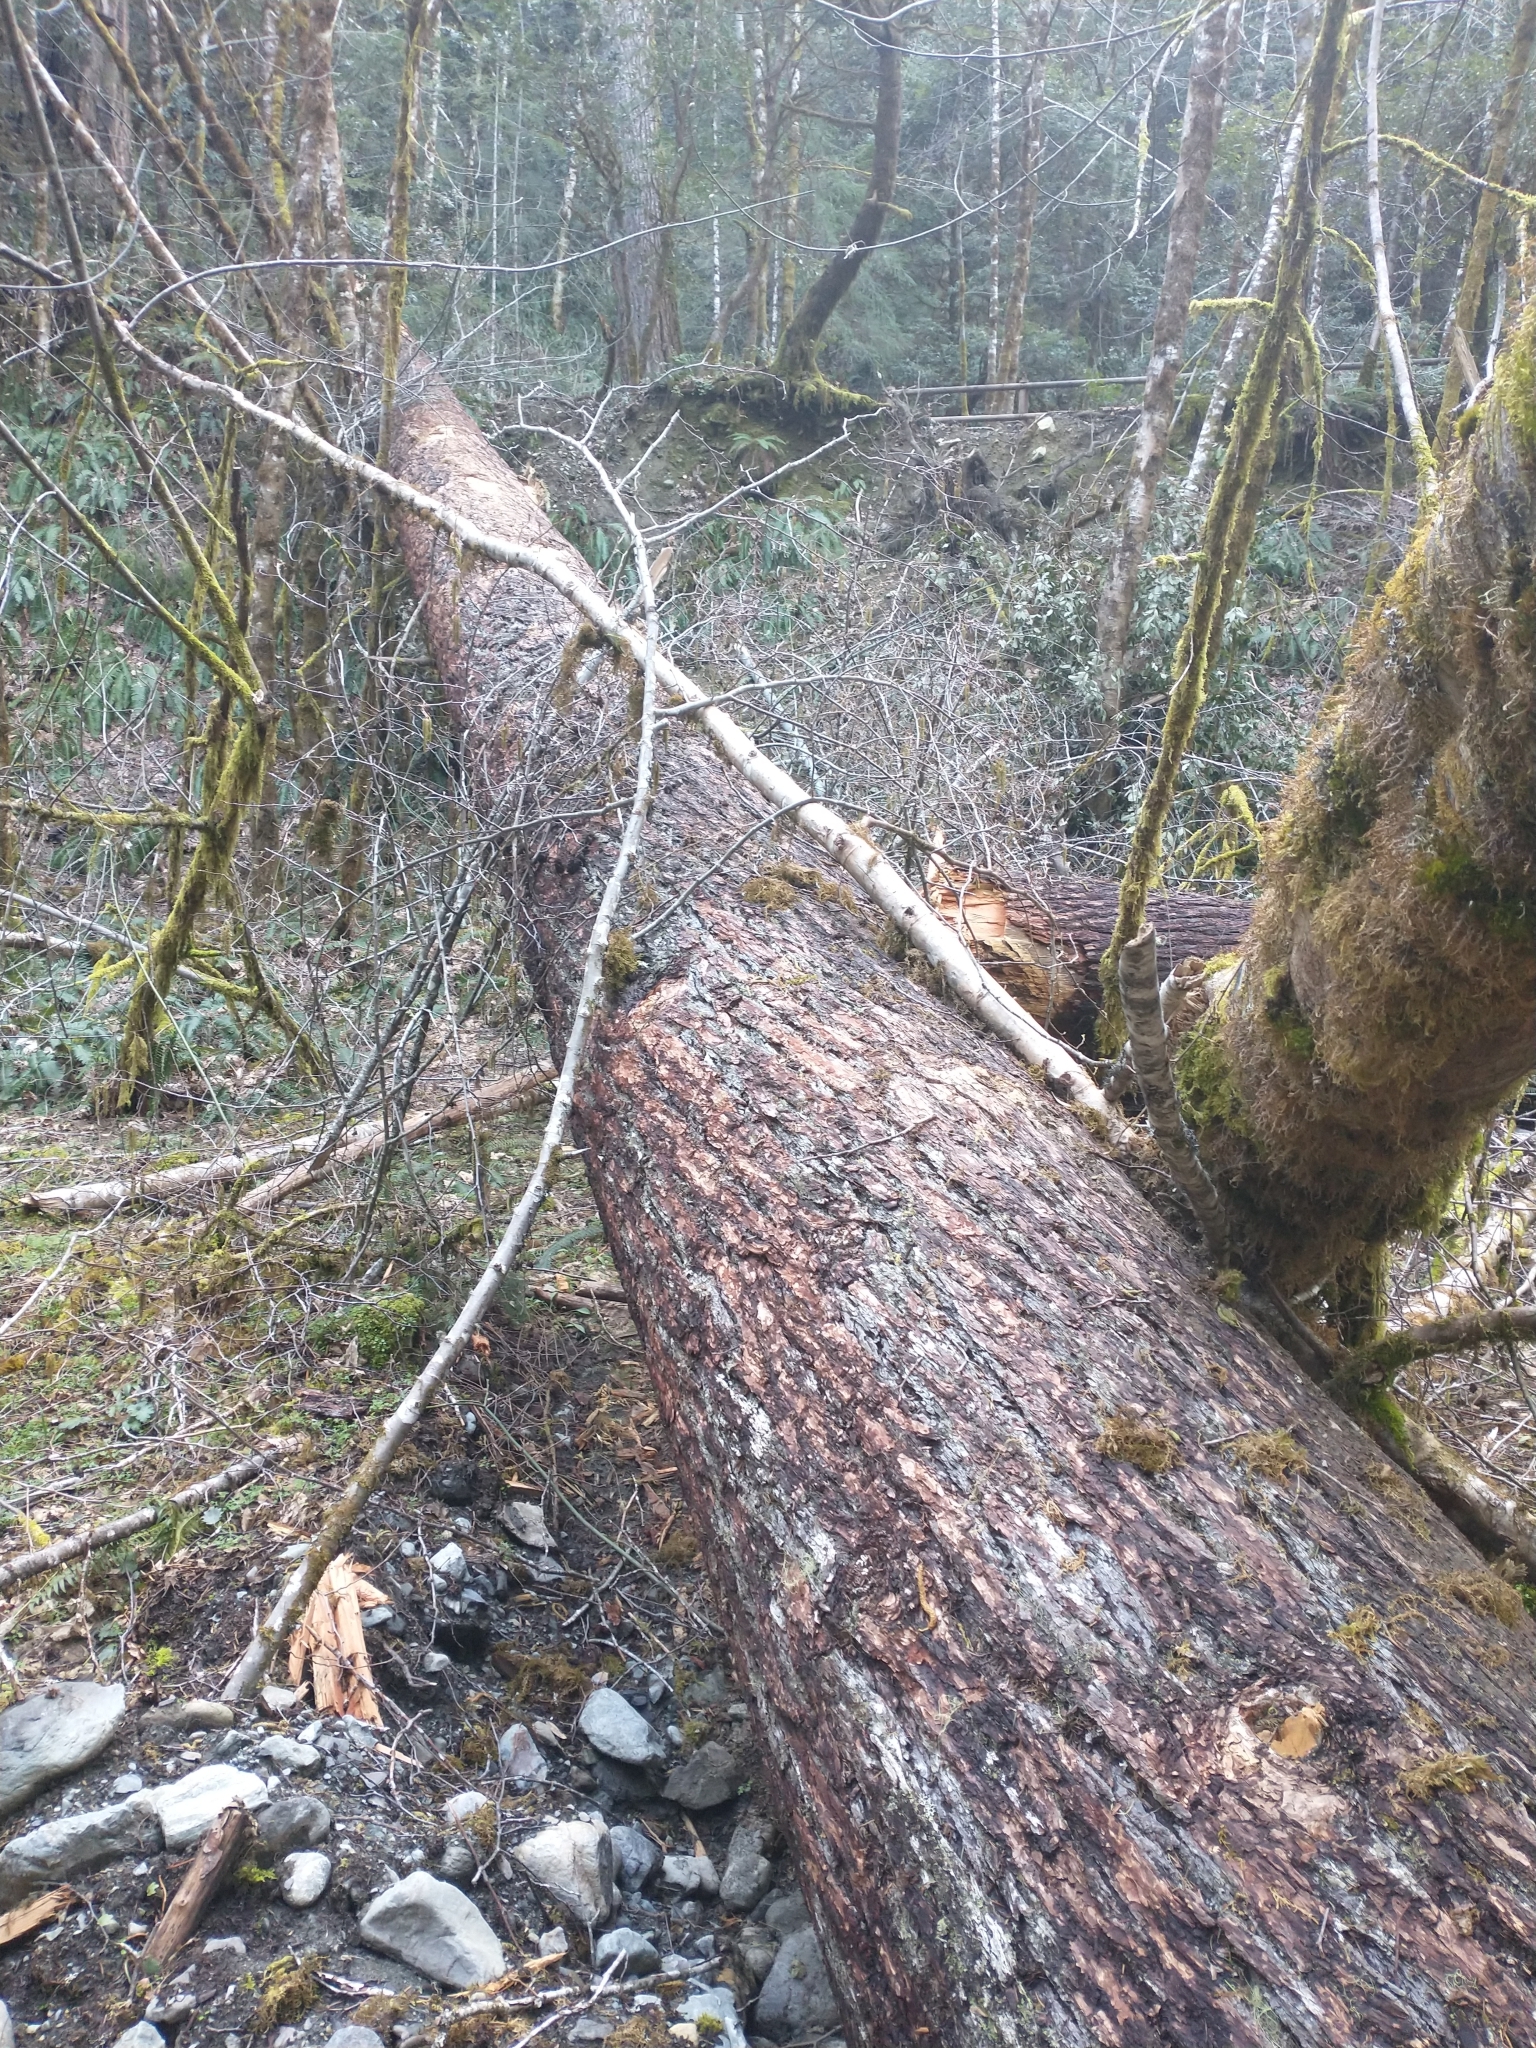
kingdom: Plantae
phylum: Tracheophyta
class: Pinopsida
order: Pinales
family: Pinaceae
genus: Pseudotsuga
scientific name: Pseudotsuga menziesii
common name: Douglas fir
